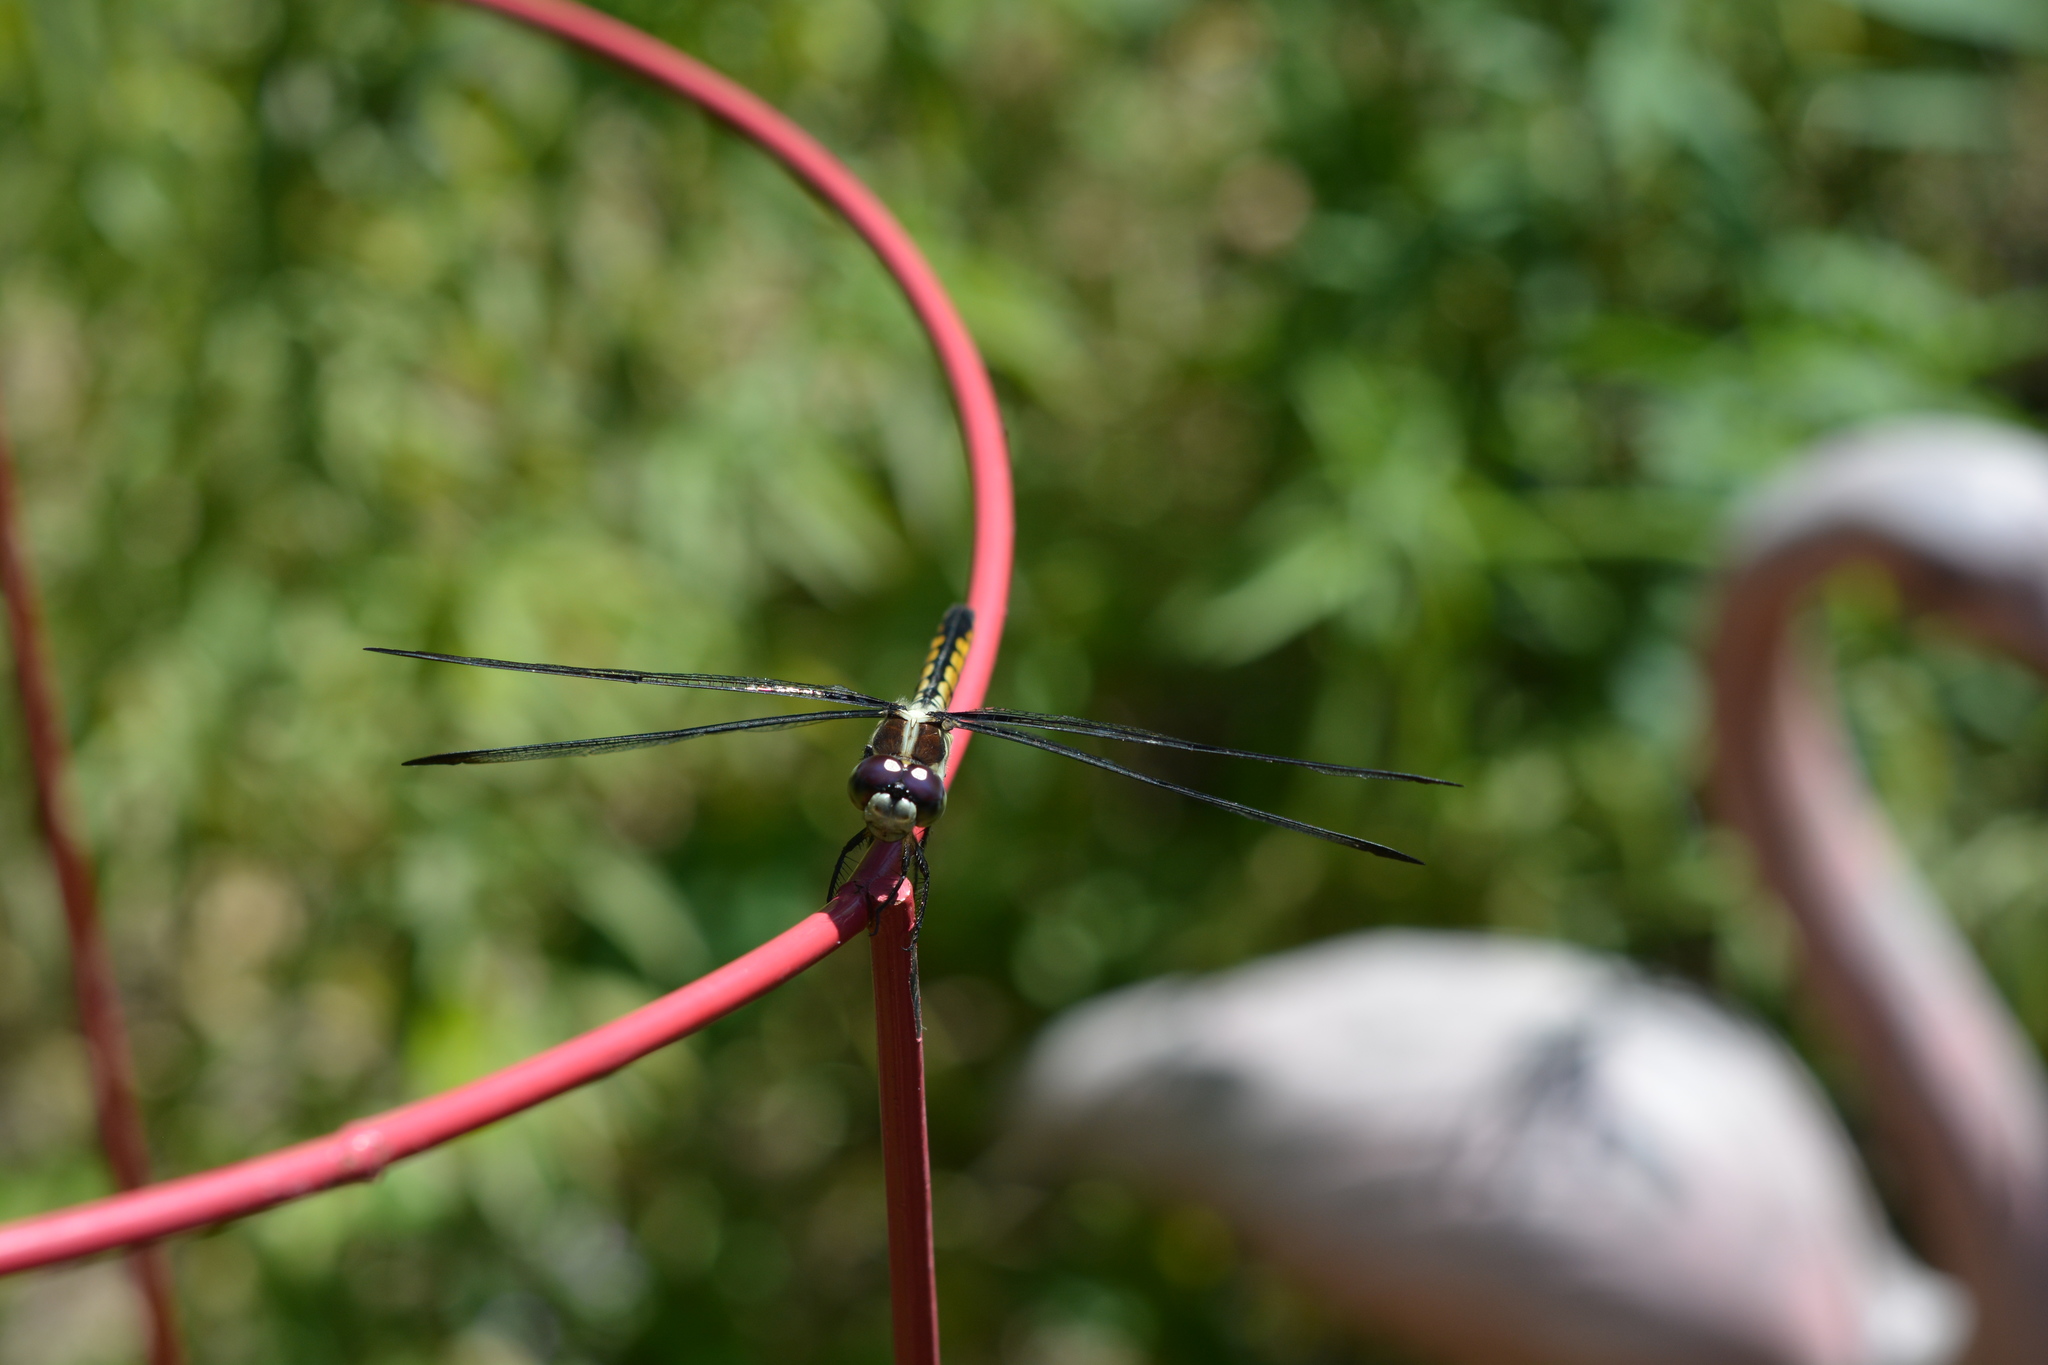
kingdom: Animalia
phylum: Arthropoda
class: Insecta
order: Odonata
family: Libellulidae
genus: Libellula
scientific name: Libellula vibrans
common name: Great blue skimmer
